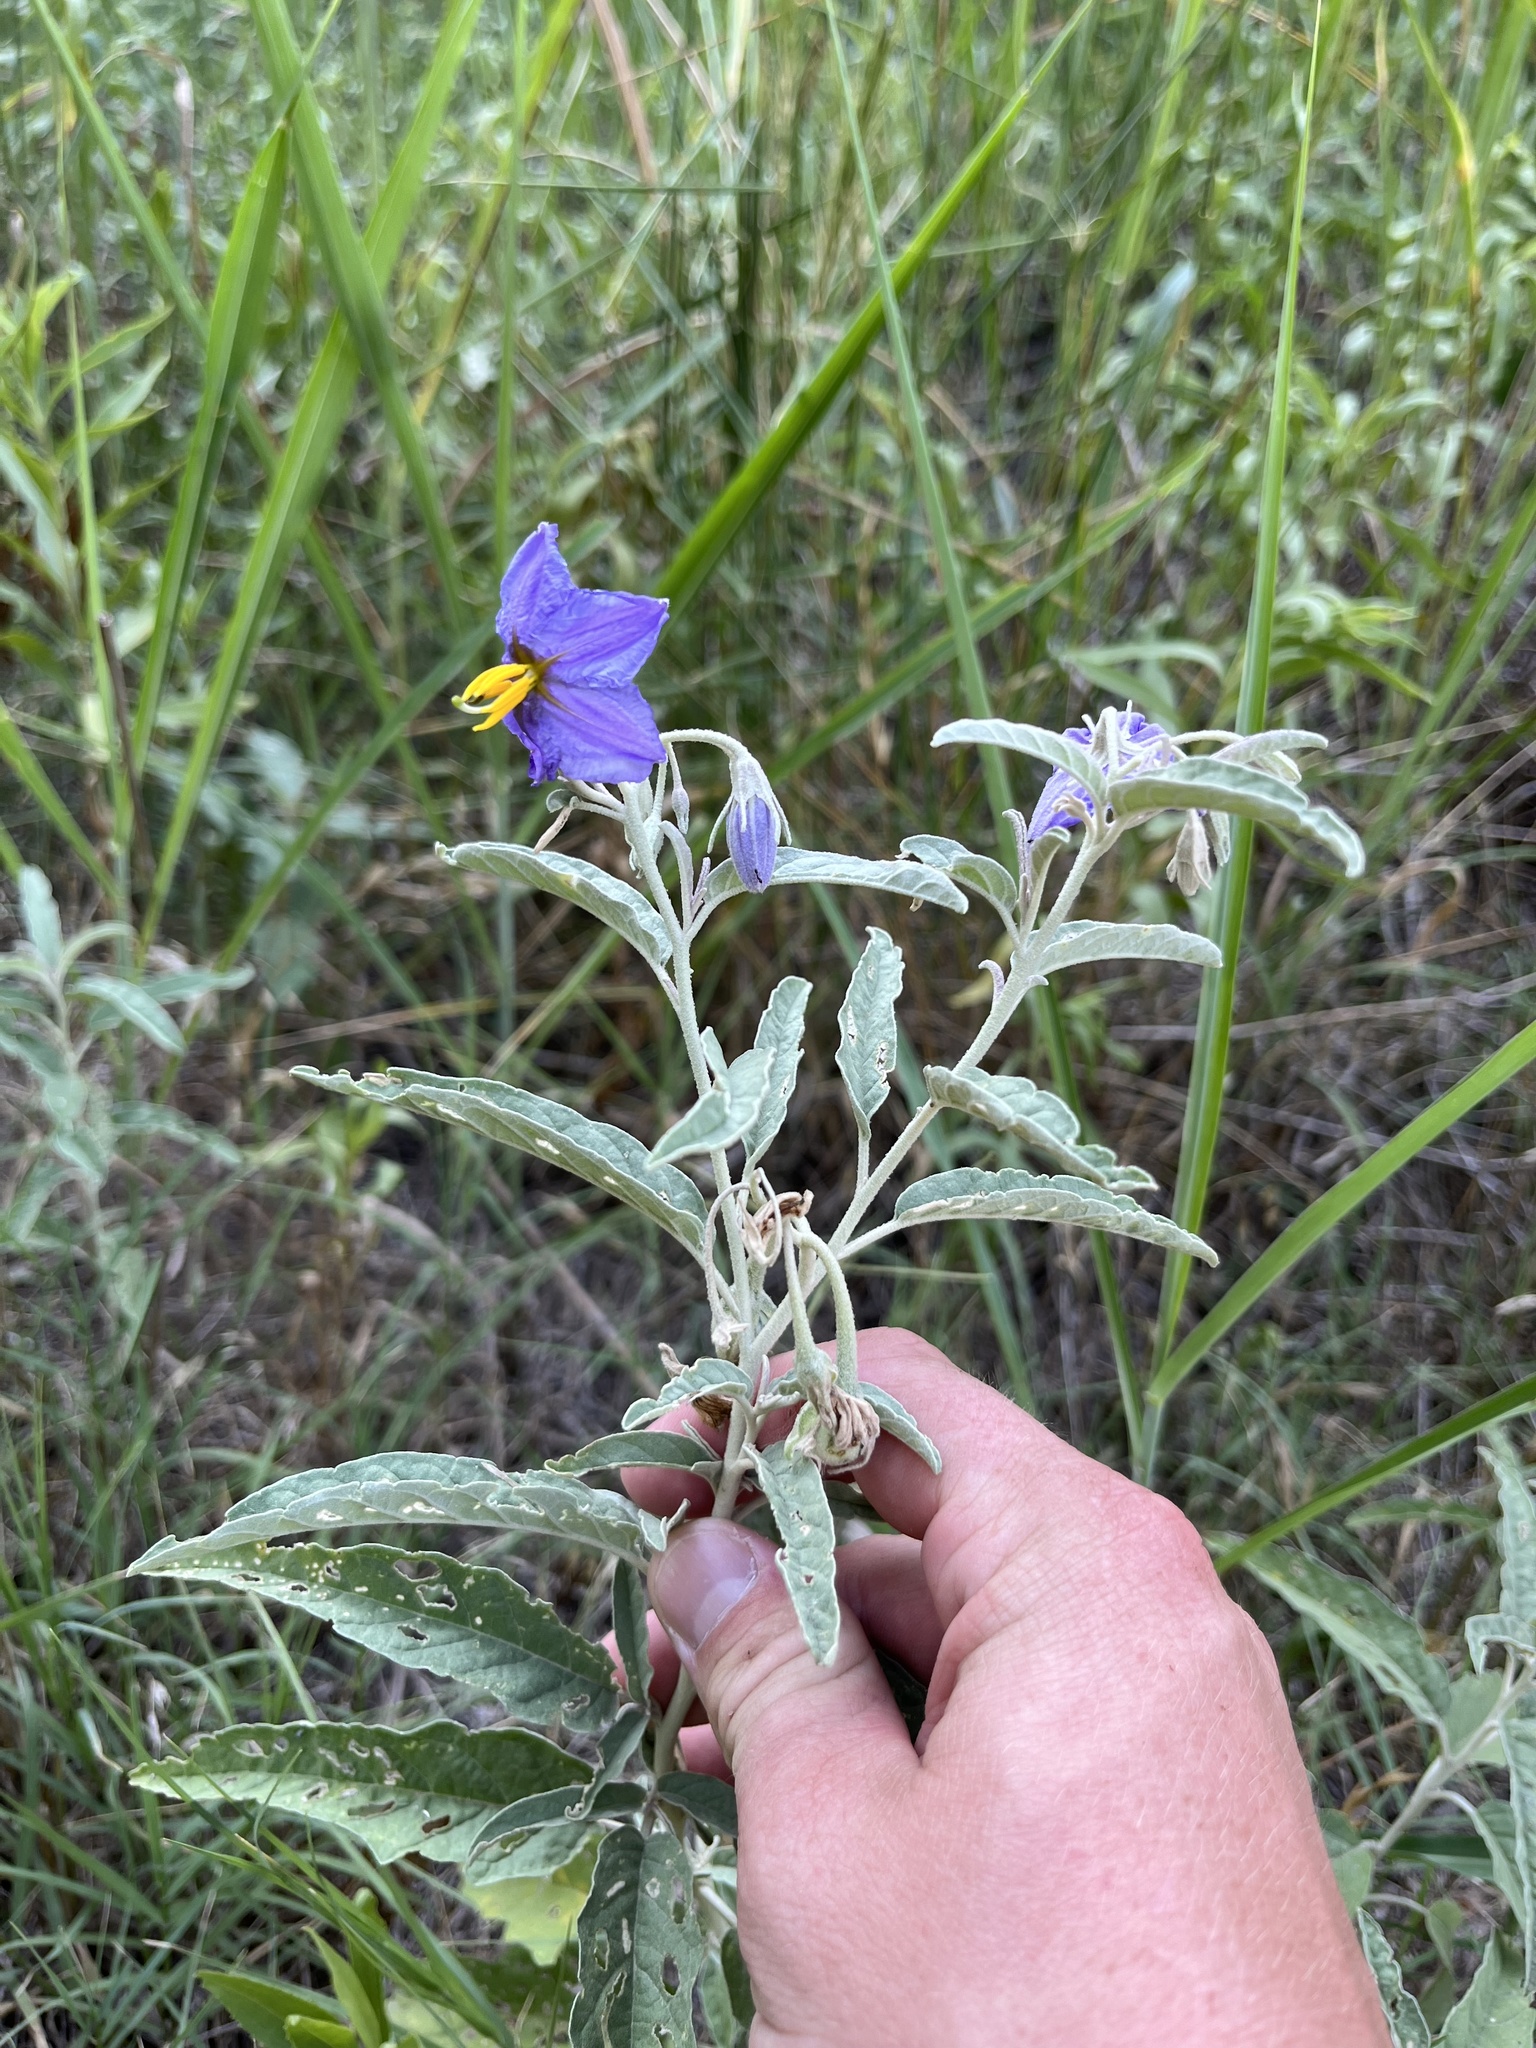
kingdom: Plantae
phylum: Tracheophyta
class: Magnoliopsida
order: Solanales
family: Solanaceae
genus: Solanum
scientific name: Solanum elaeagnifolium
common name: Silverleaf nightshade
